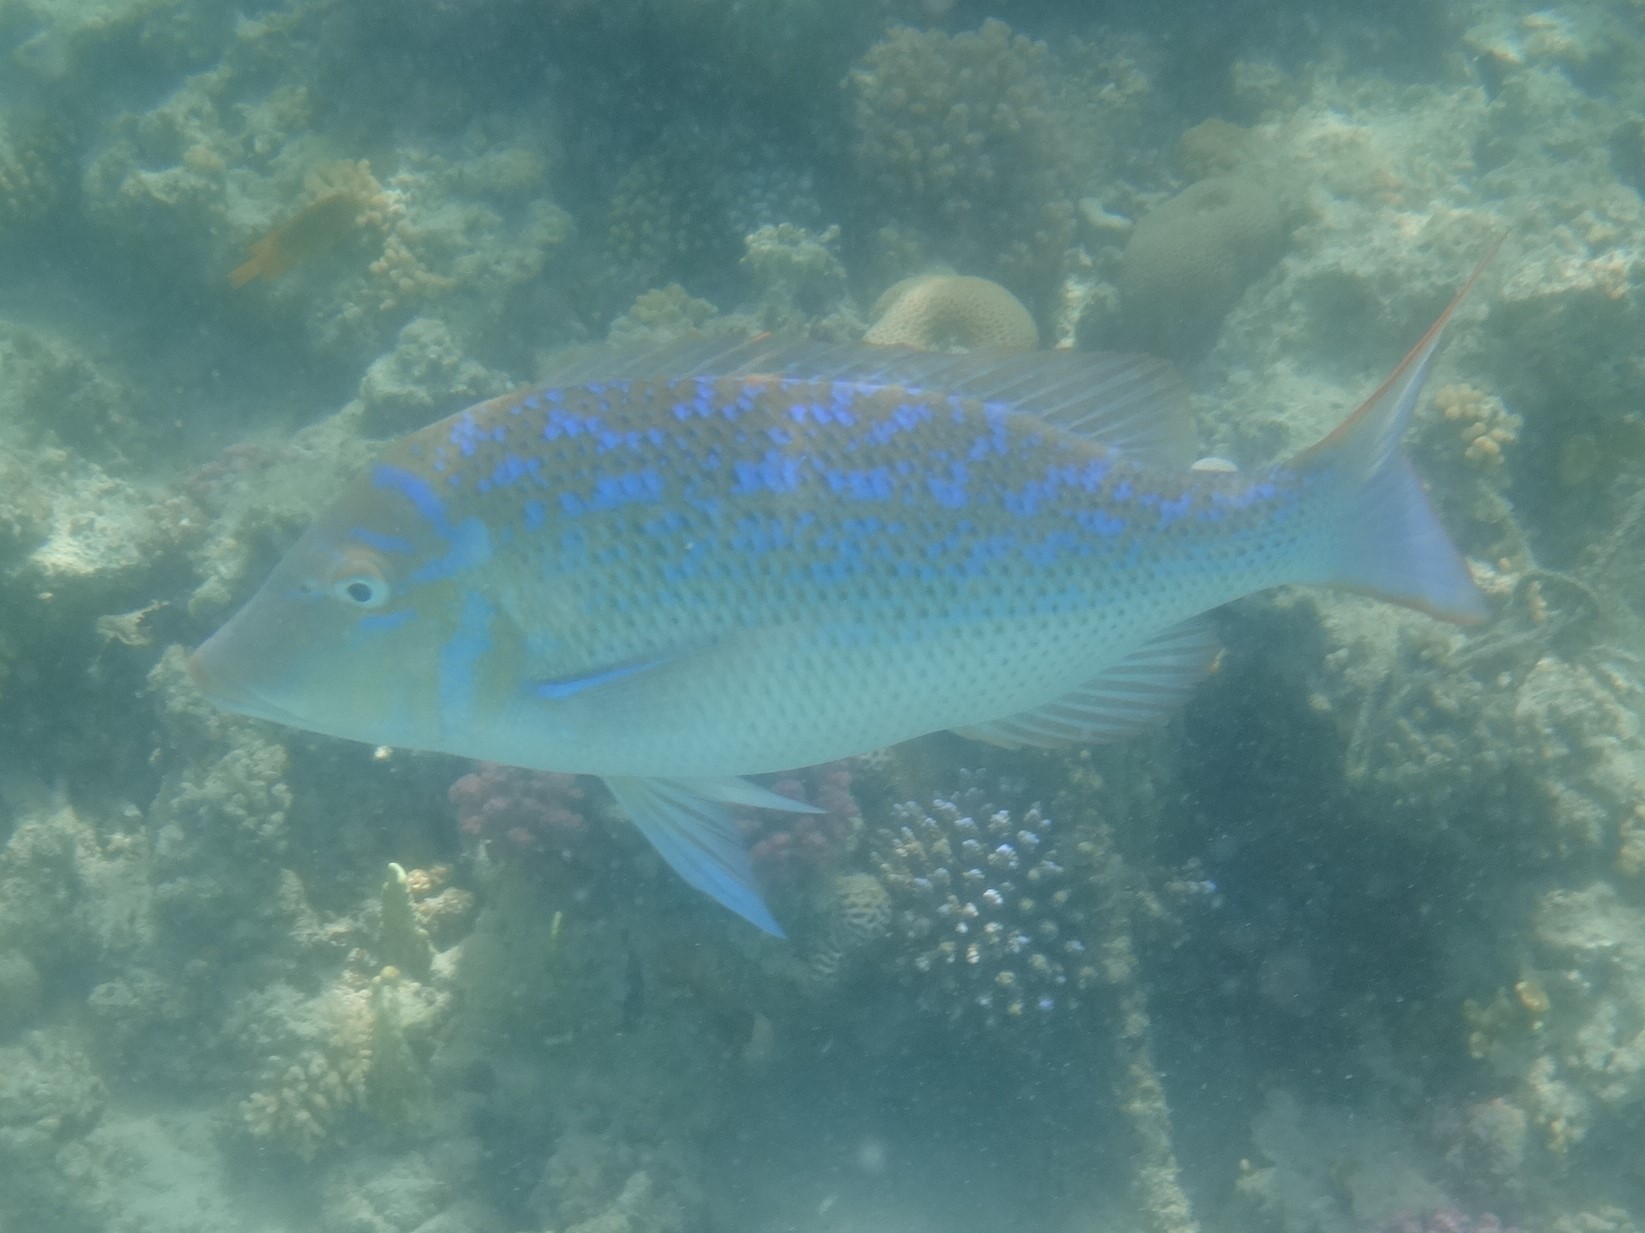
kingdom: Animalia
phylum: Chordata
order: Perciformes
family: Lethrinidae
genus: Lethrinus
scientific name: Lethrinus nebulosus
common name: Spangled emperor
